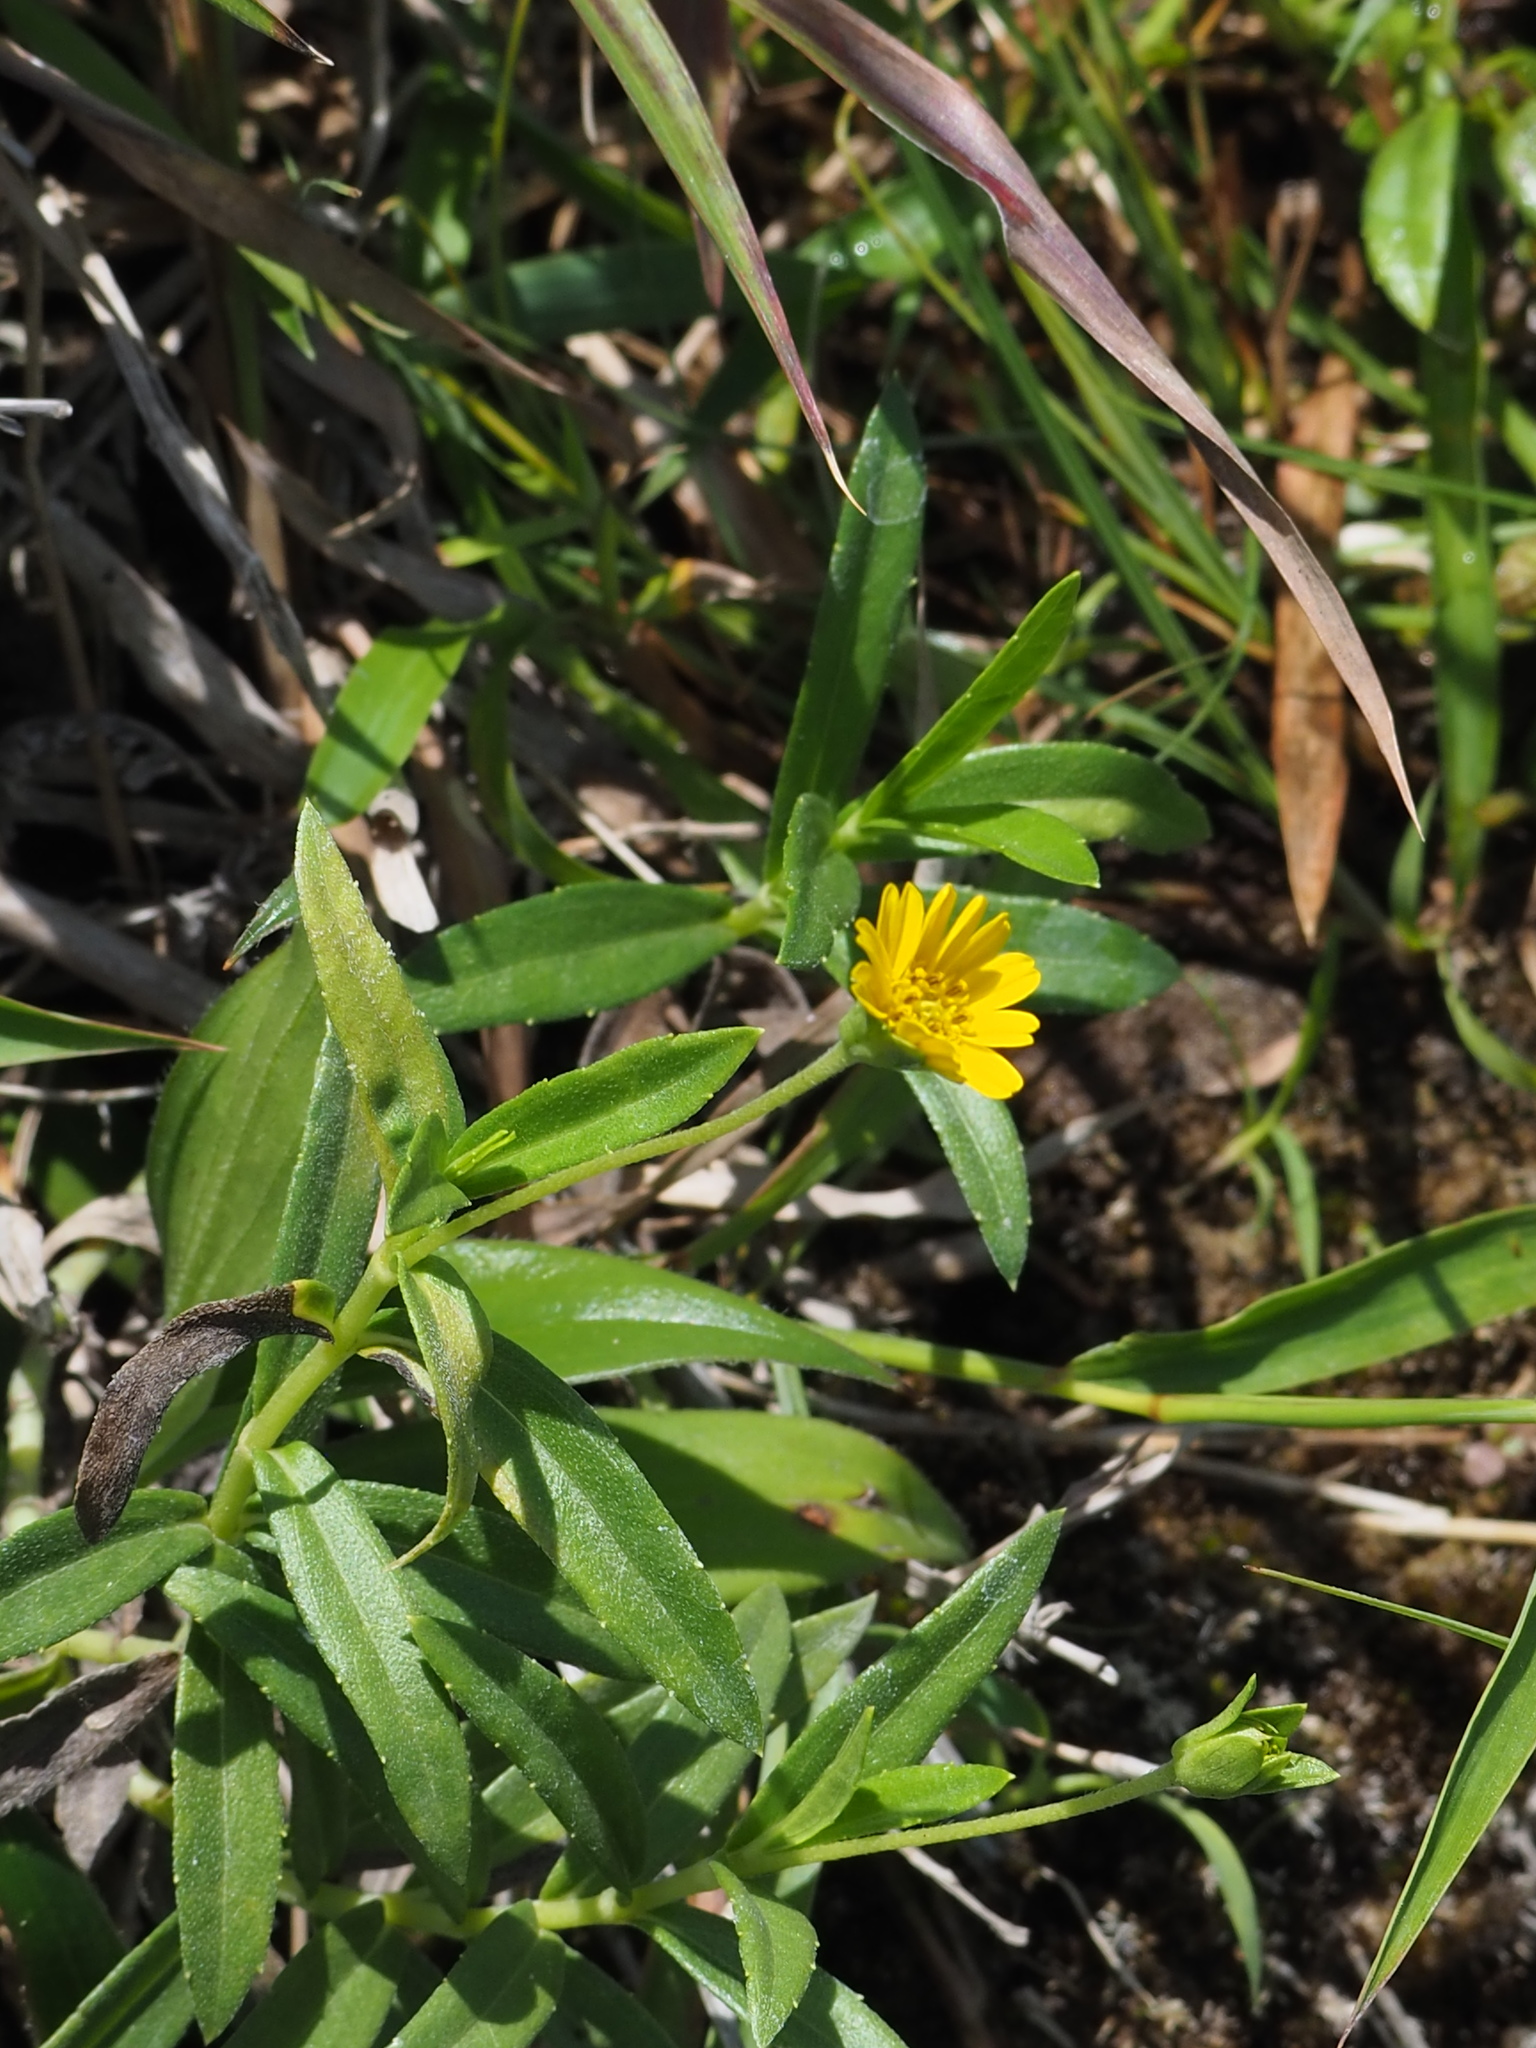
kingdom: Plantae
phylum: Tracheophyta
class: Magnoliopsida
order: Asterales
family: Asteraceae
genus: Sphagneticola
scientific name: Sphagneticola calendulacea
